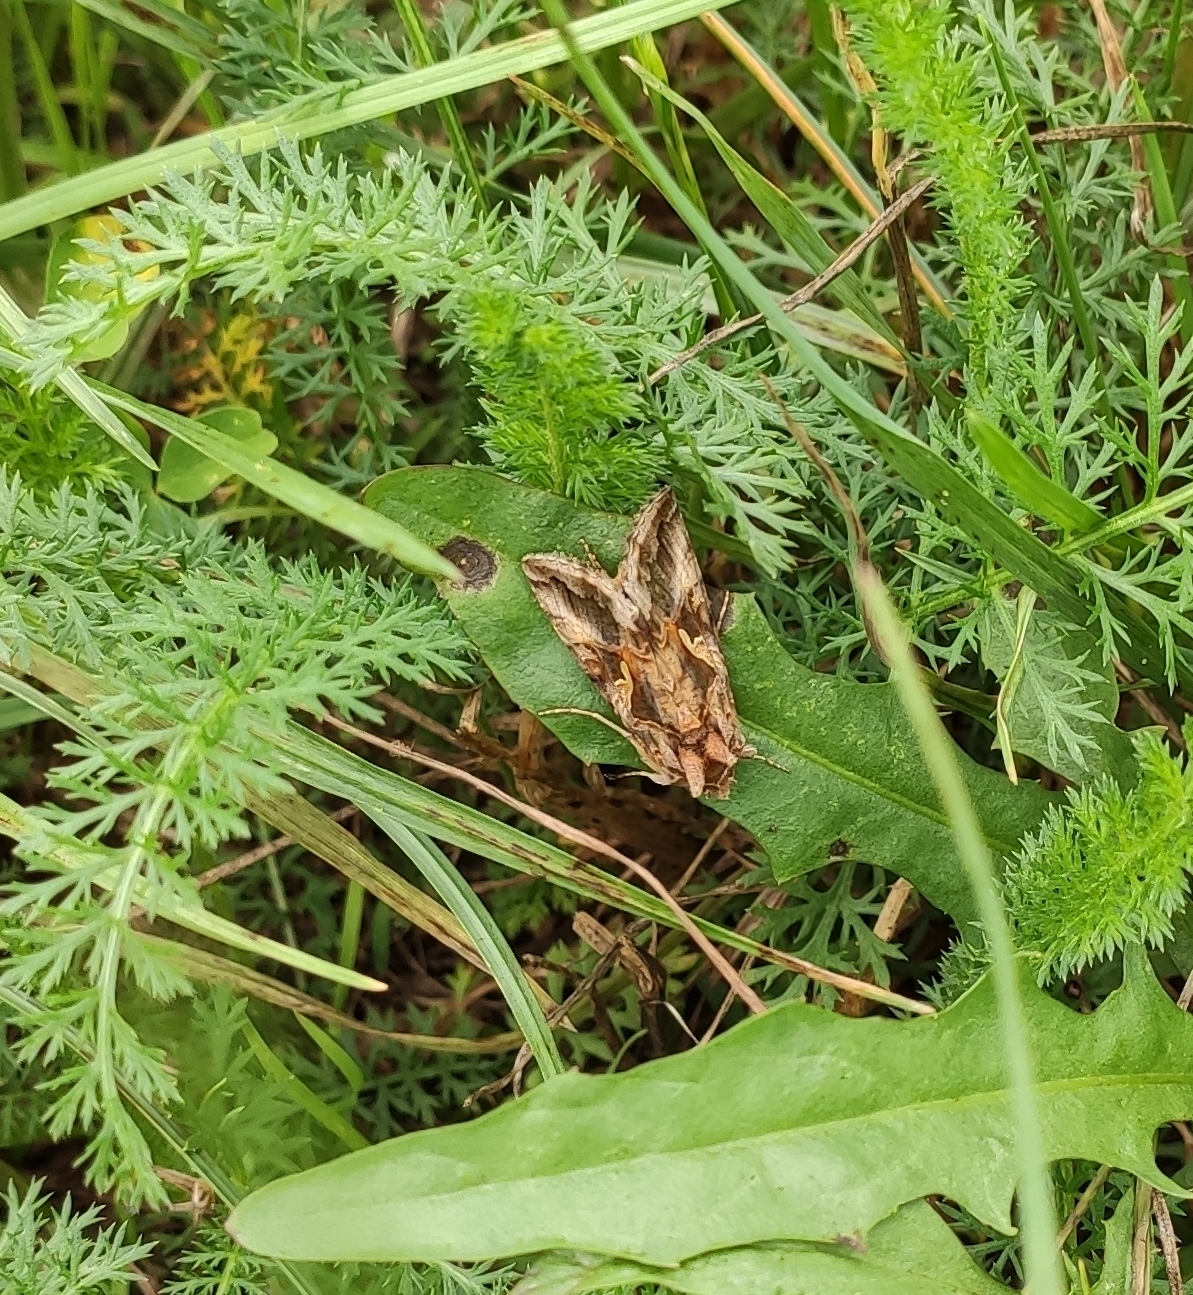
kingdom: Animalia
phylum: Arthropoda
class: Insecta
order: Lepidoptera
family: Noctuidae
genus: Autographa
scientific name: Autographa gamma
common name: Silver y
